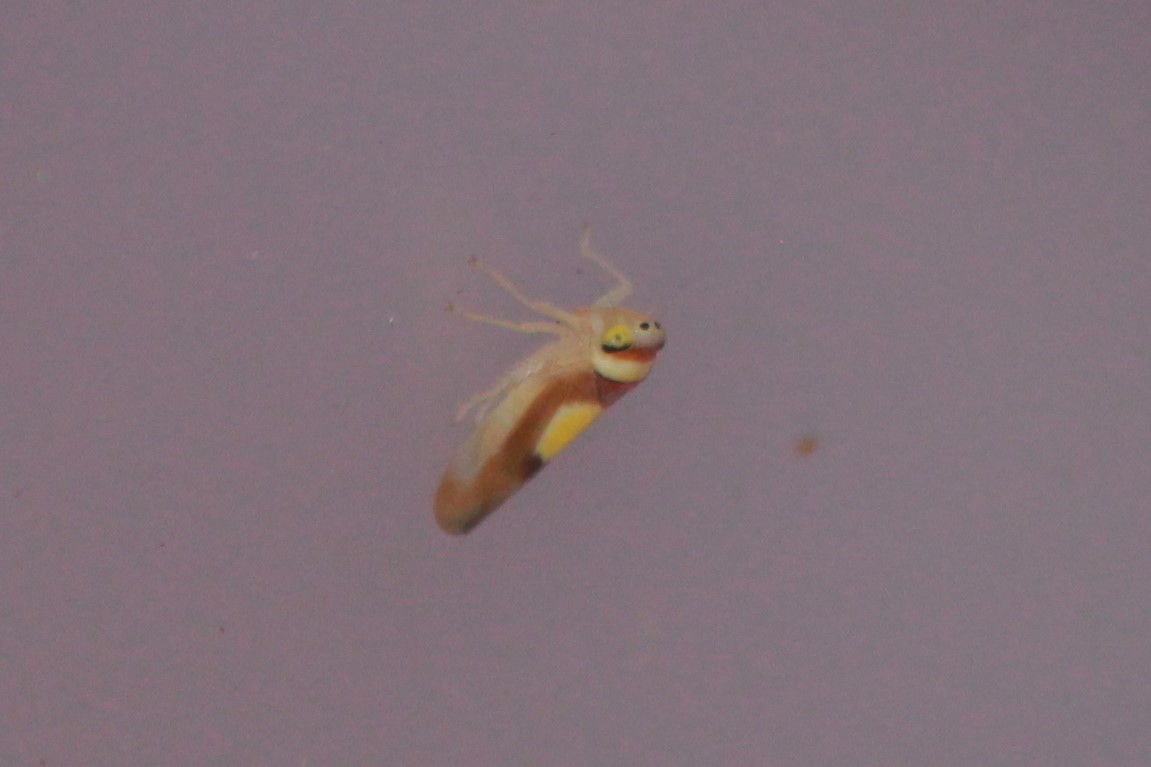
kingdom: Animalia
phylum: Arthropoda
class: Insecta
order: Hemiptera
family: Cicadellidae
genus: Colladonus
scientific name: Colladonus clitellarius
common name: The saddleback leafhopper
